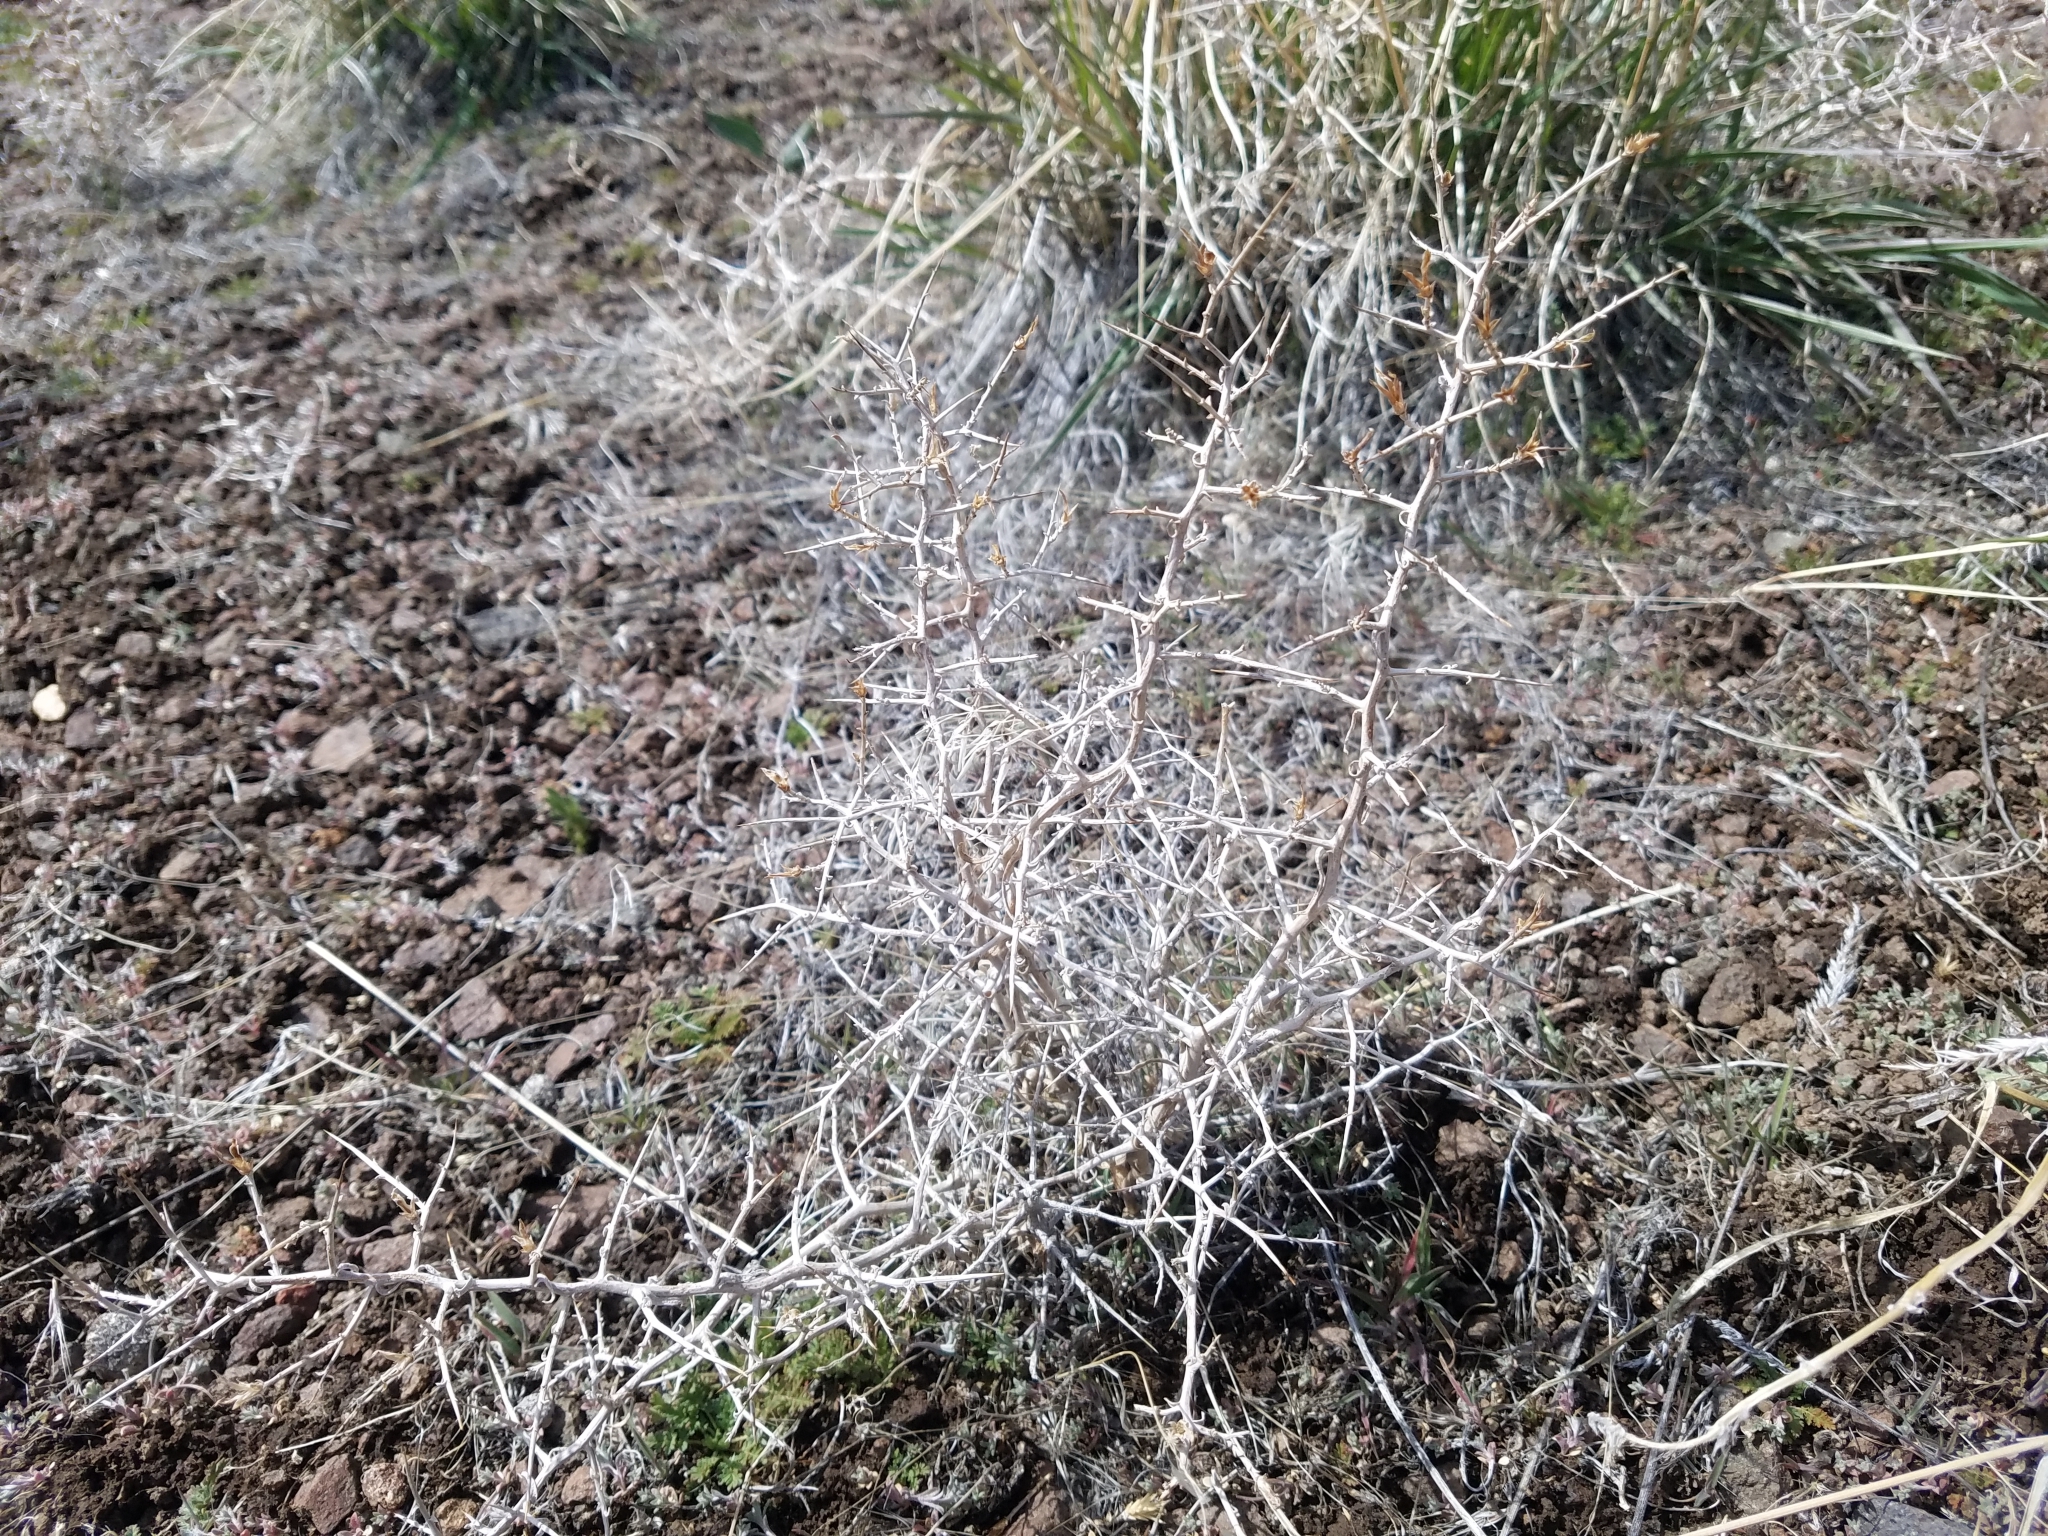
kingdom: Plantae
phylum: Tracheophyta
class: Magnoliopsida
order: Asterales
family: Asteraceae
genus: Pleiacanthus
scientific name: Pleiacanthus spinosus
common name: Thorny skeleton-weed
